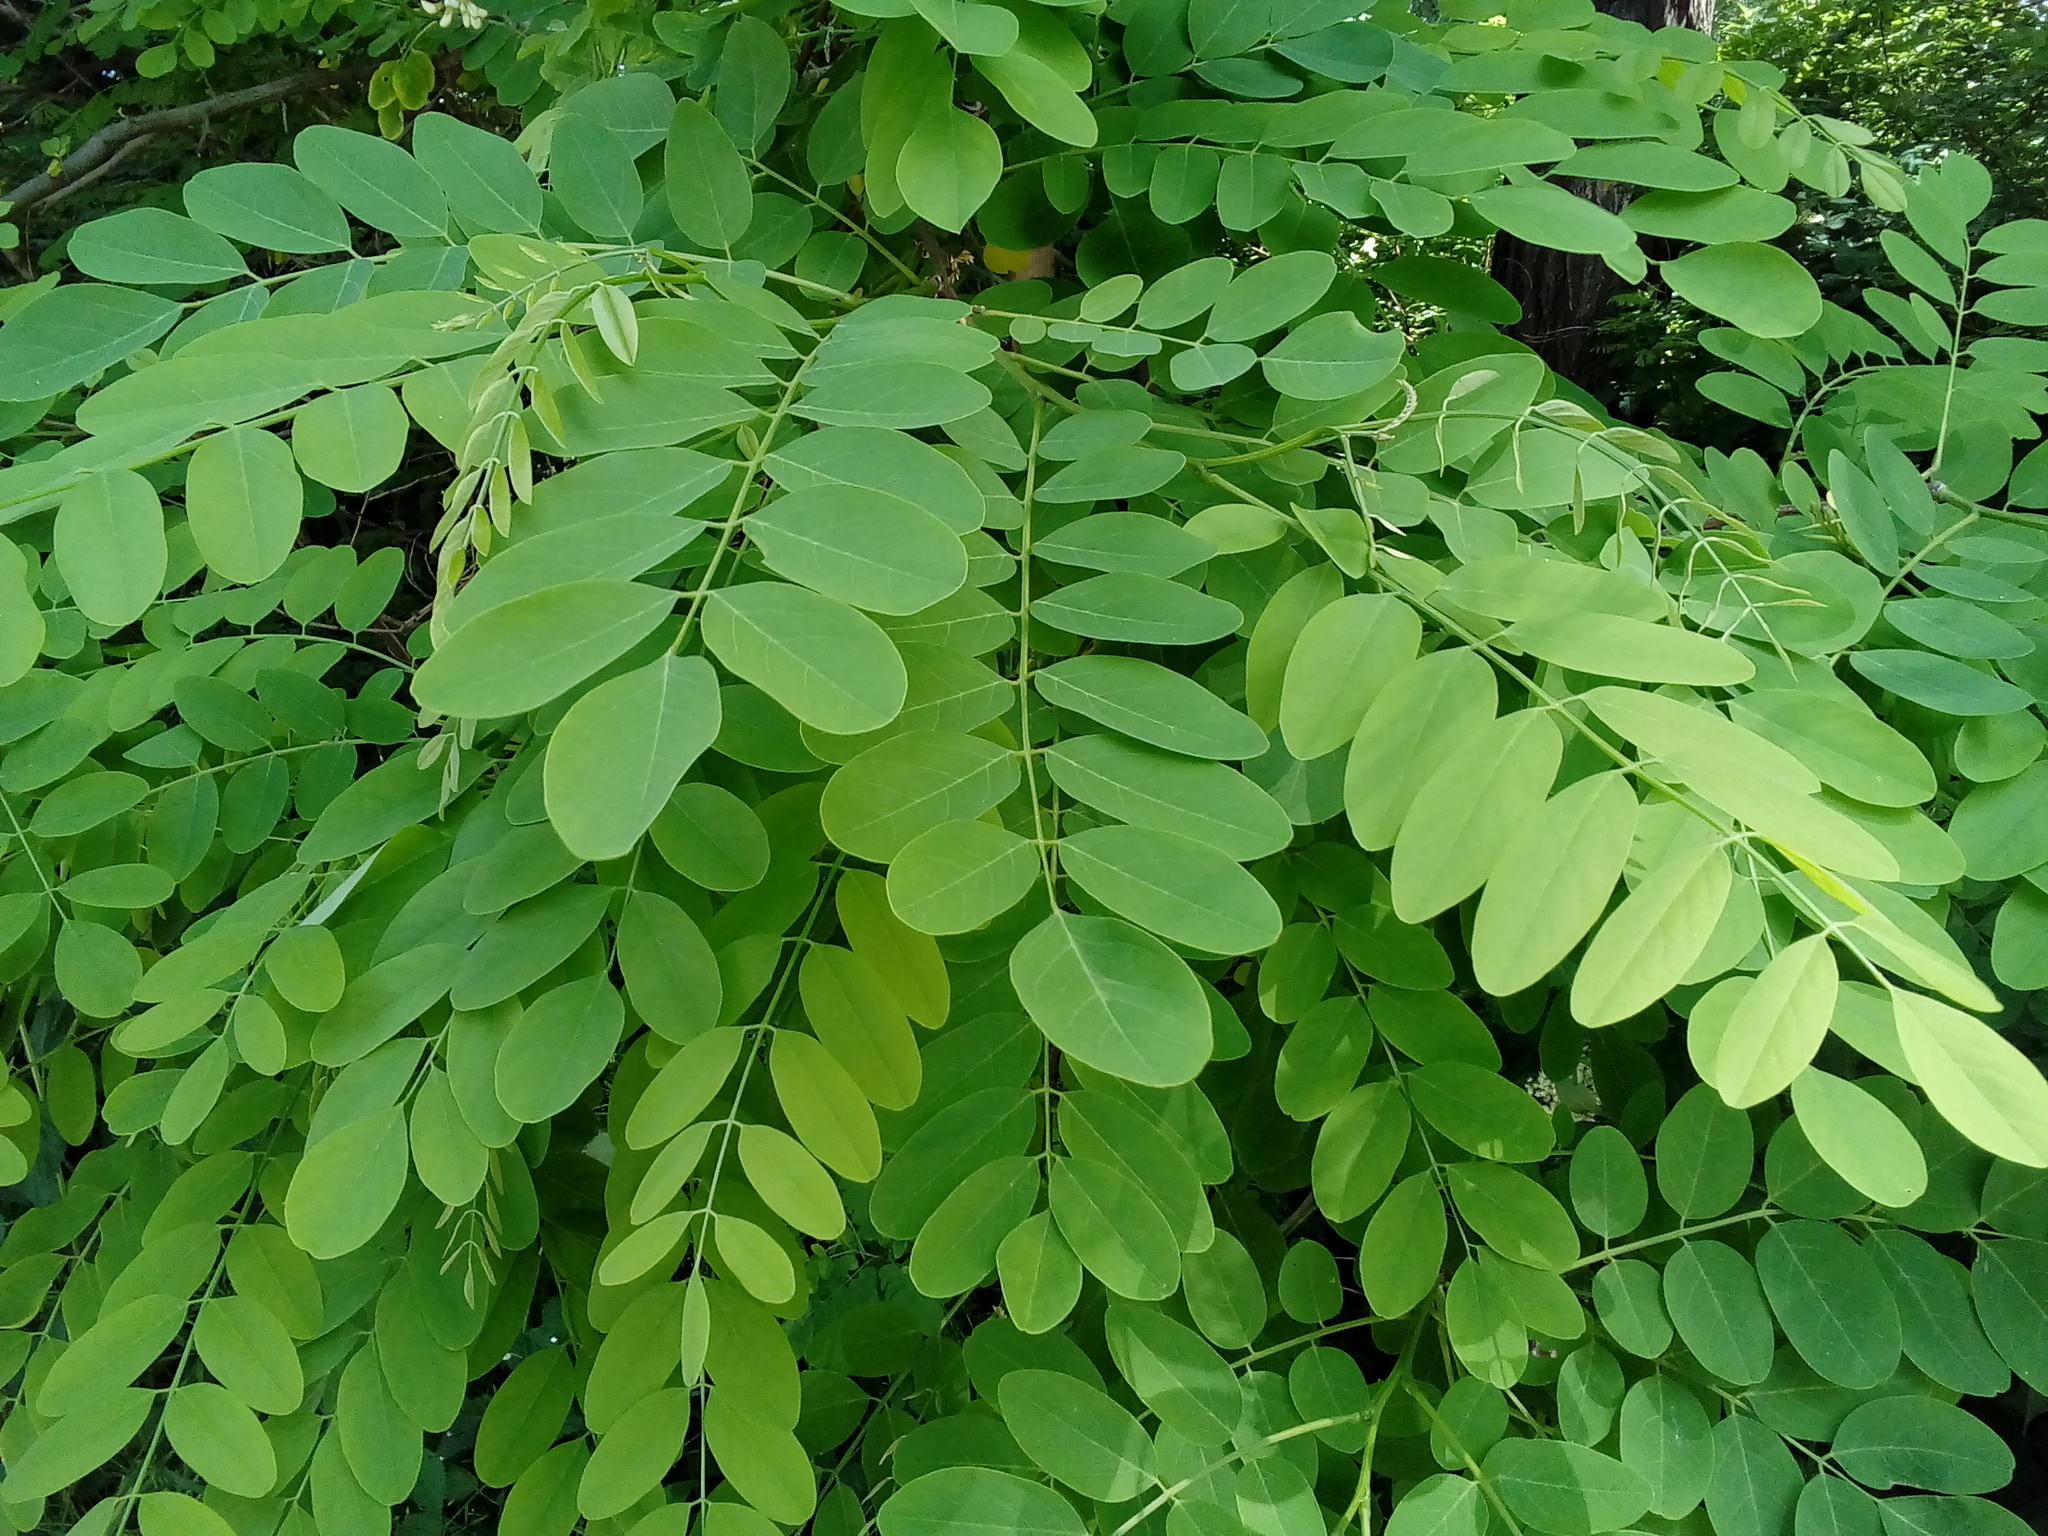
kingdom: Plantae
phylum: Tracheophyta
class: Magnoliopsida
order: Fabales
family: Fabaceae
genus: Robinia
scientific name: Robinia pseudoacacia
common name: Black locust
